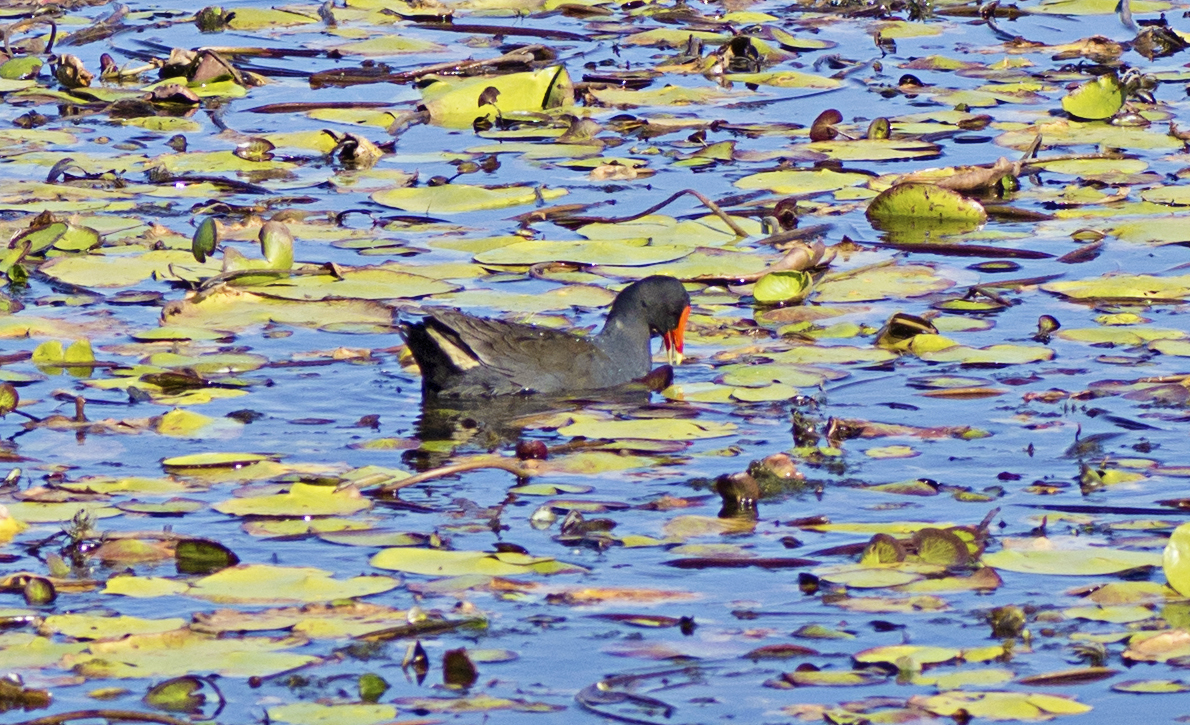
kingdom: Animalia
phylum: Chordata
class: Aves
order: Gruiformes
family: Rallidae
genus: Gallinula
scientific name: Gallinula tenebrosa
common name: Dusky moorhen
